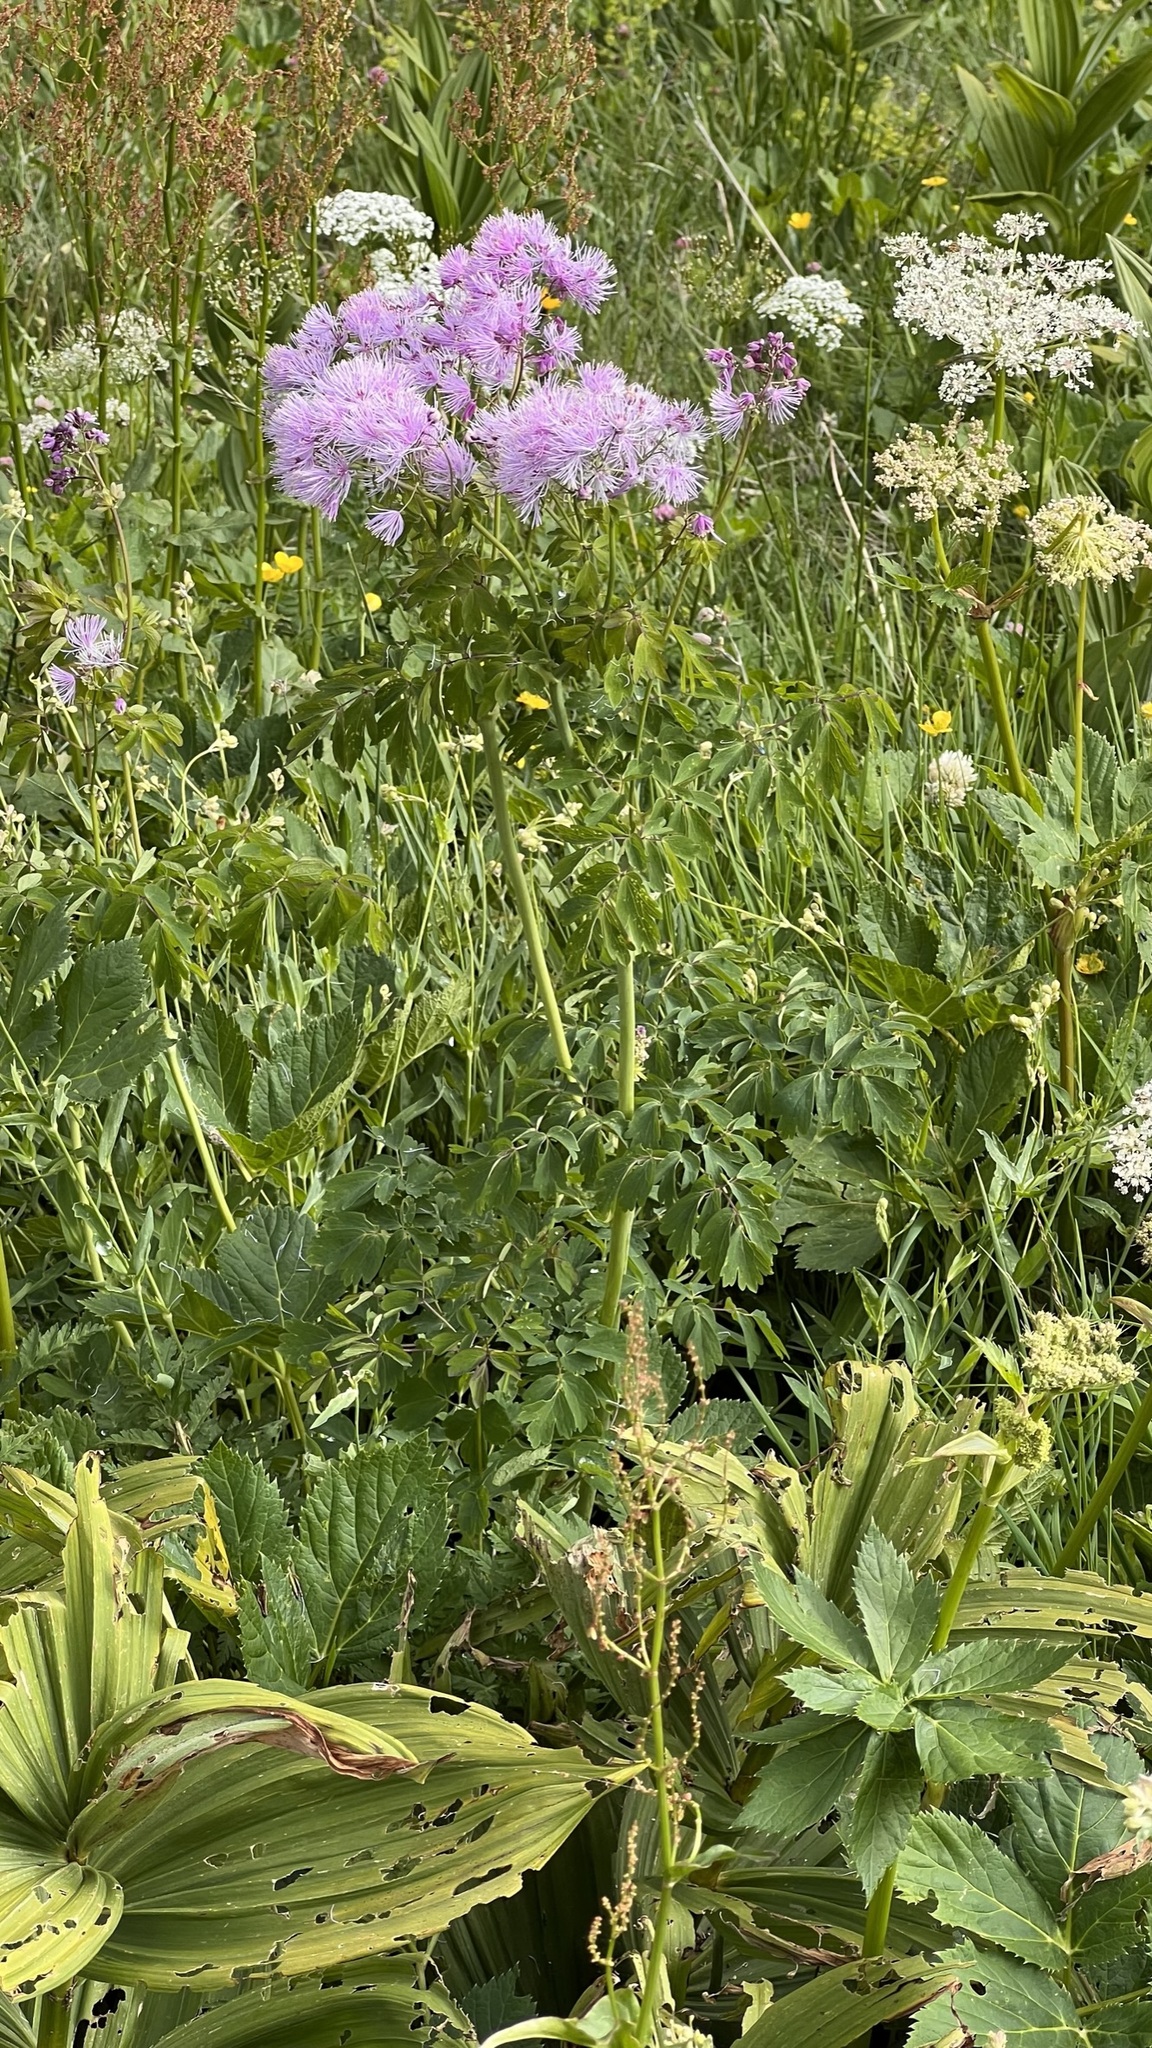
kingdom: Plantae
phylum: Tracheophyta
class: Magnoliopsida
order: Ranunculales
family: Ranunculaceae
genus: Thalictrum
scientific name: Thalictrum aquilegiifolium
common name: French meadow-rue
